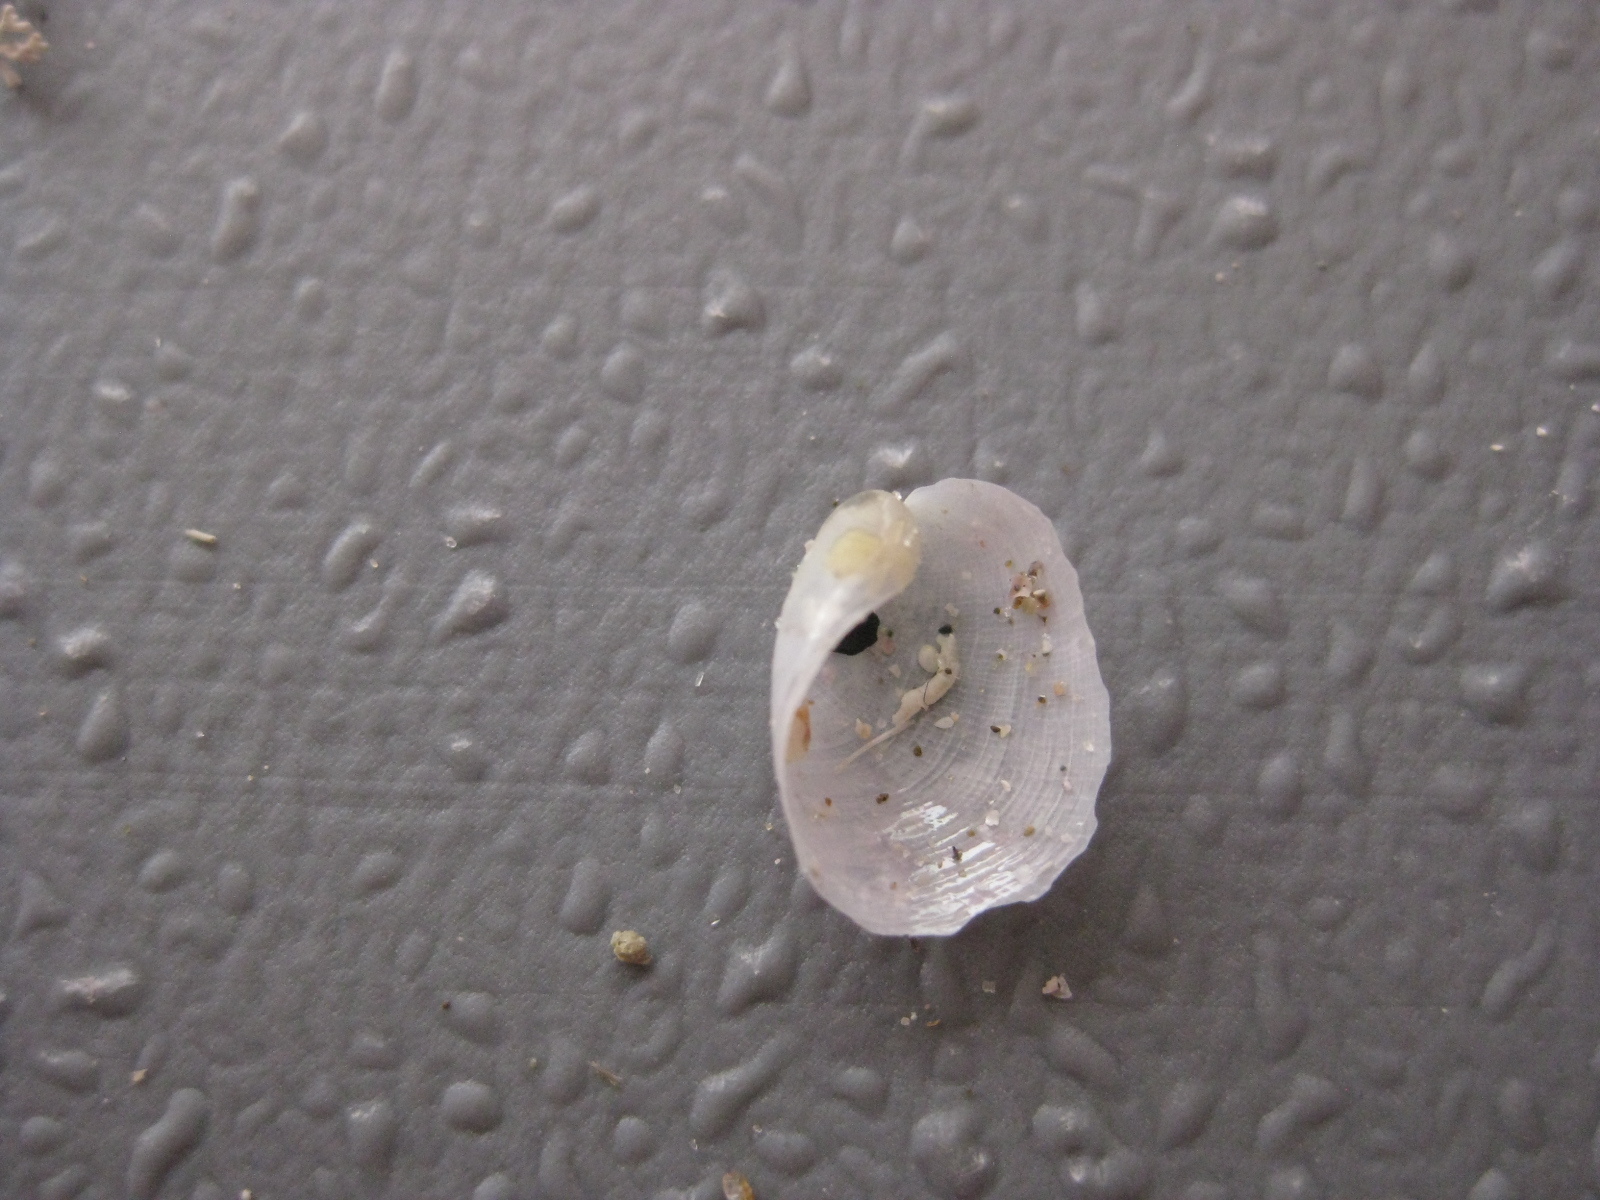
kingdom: Animalia
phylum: Mollusca
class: Gastropoda
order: Cephalaspidea
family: Philinidae
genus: Philine
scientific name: Philine auriformis
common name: Sea snail
